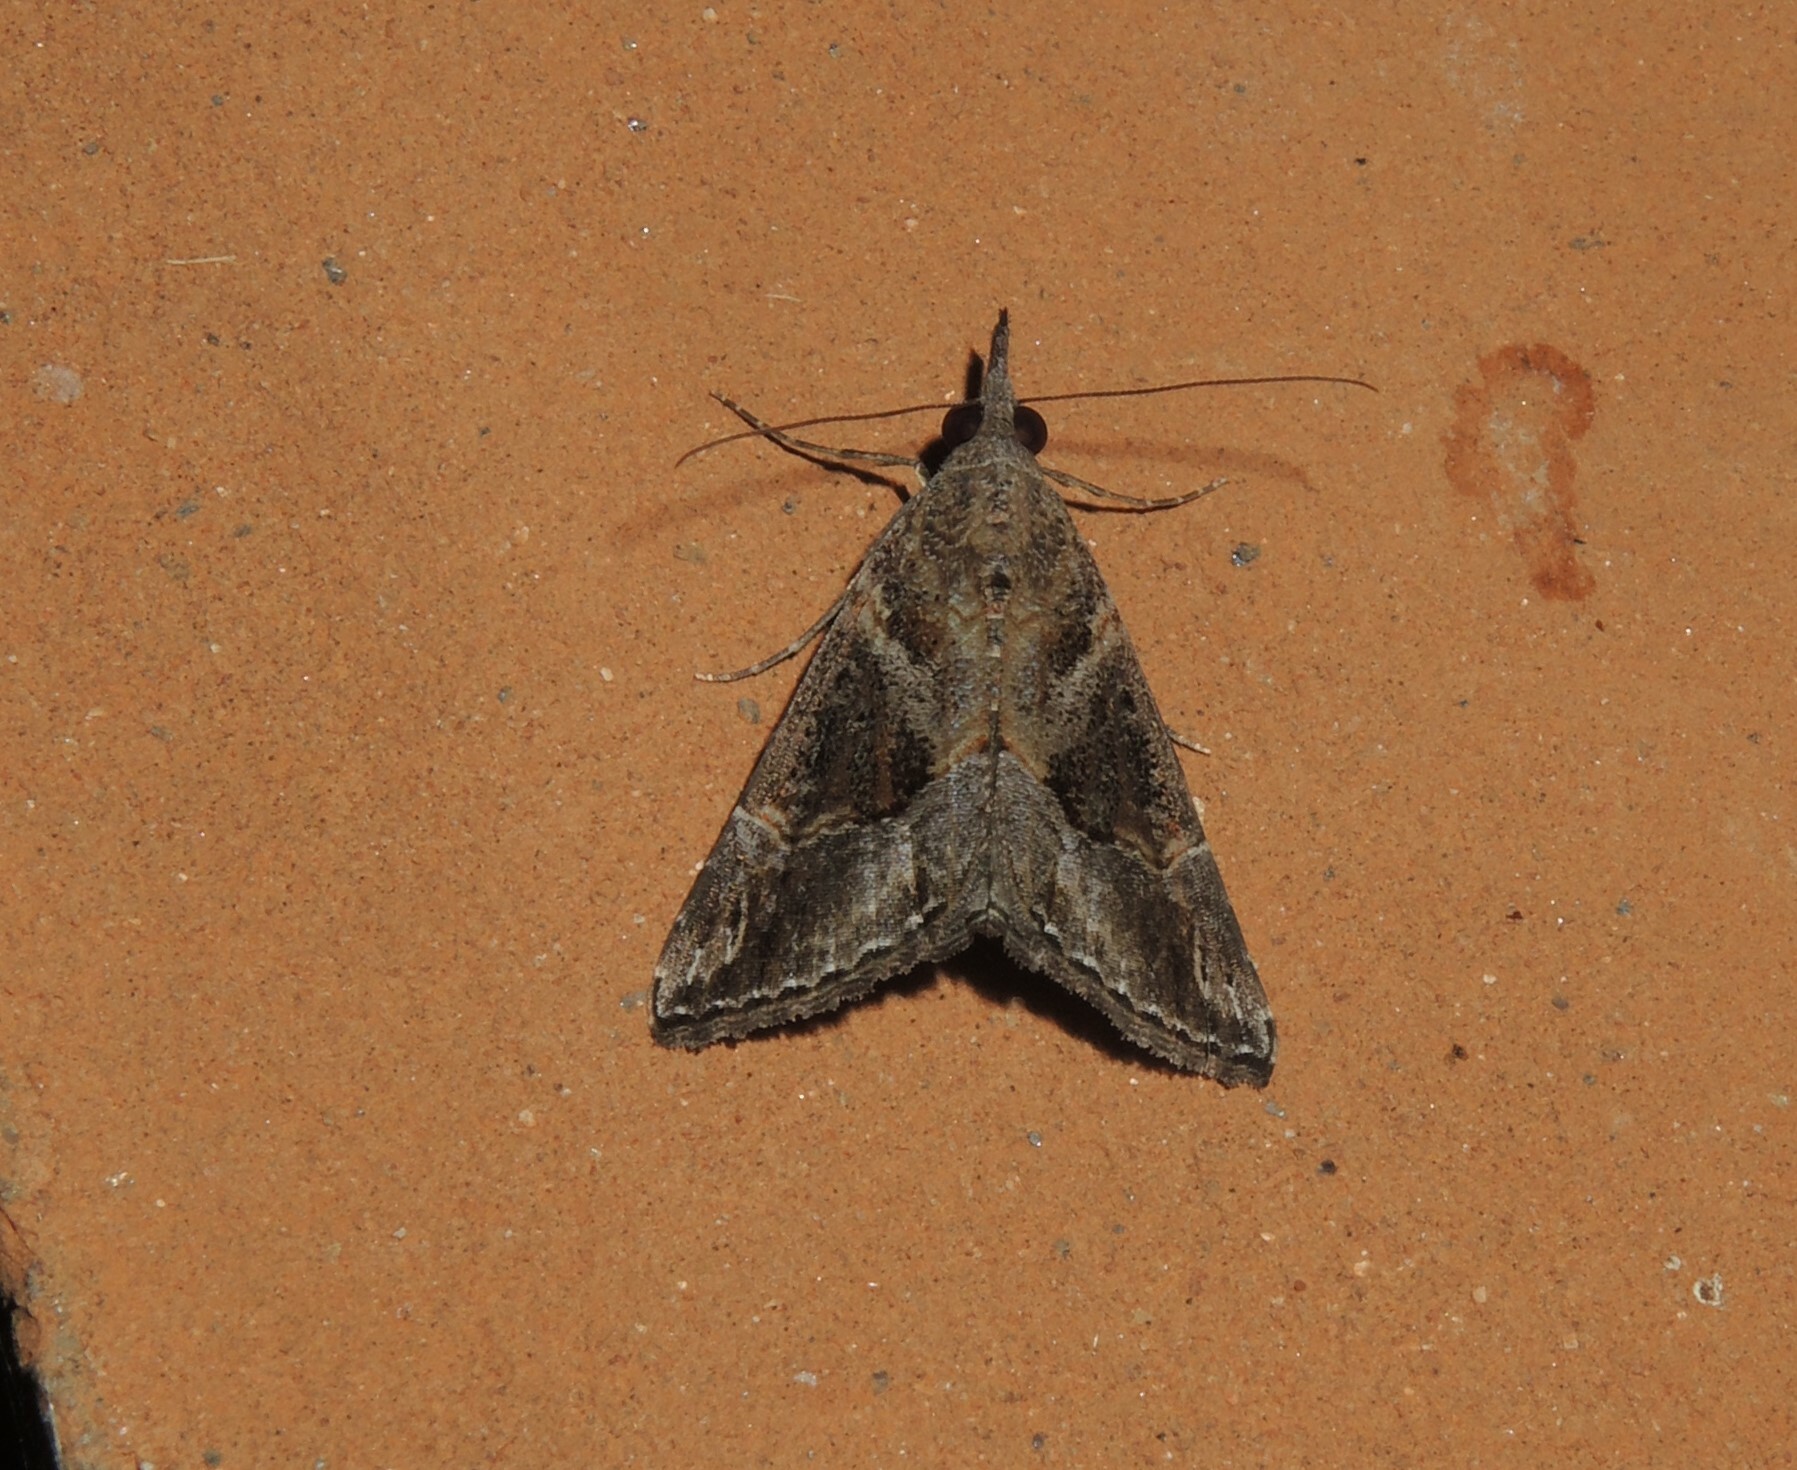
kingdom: Animalia
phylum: Arthropoda
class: Insecta
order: Lepidoptera
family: Erebidae
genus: Hypena
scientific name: Hypena commixtalis
